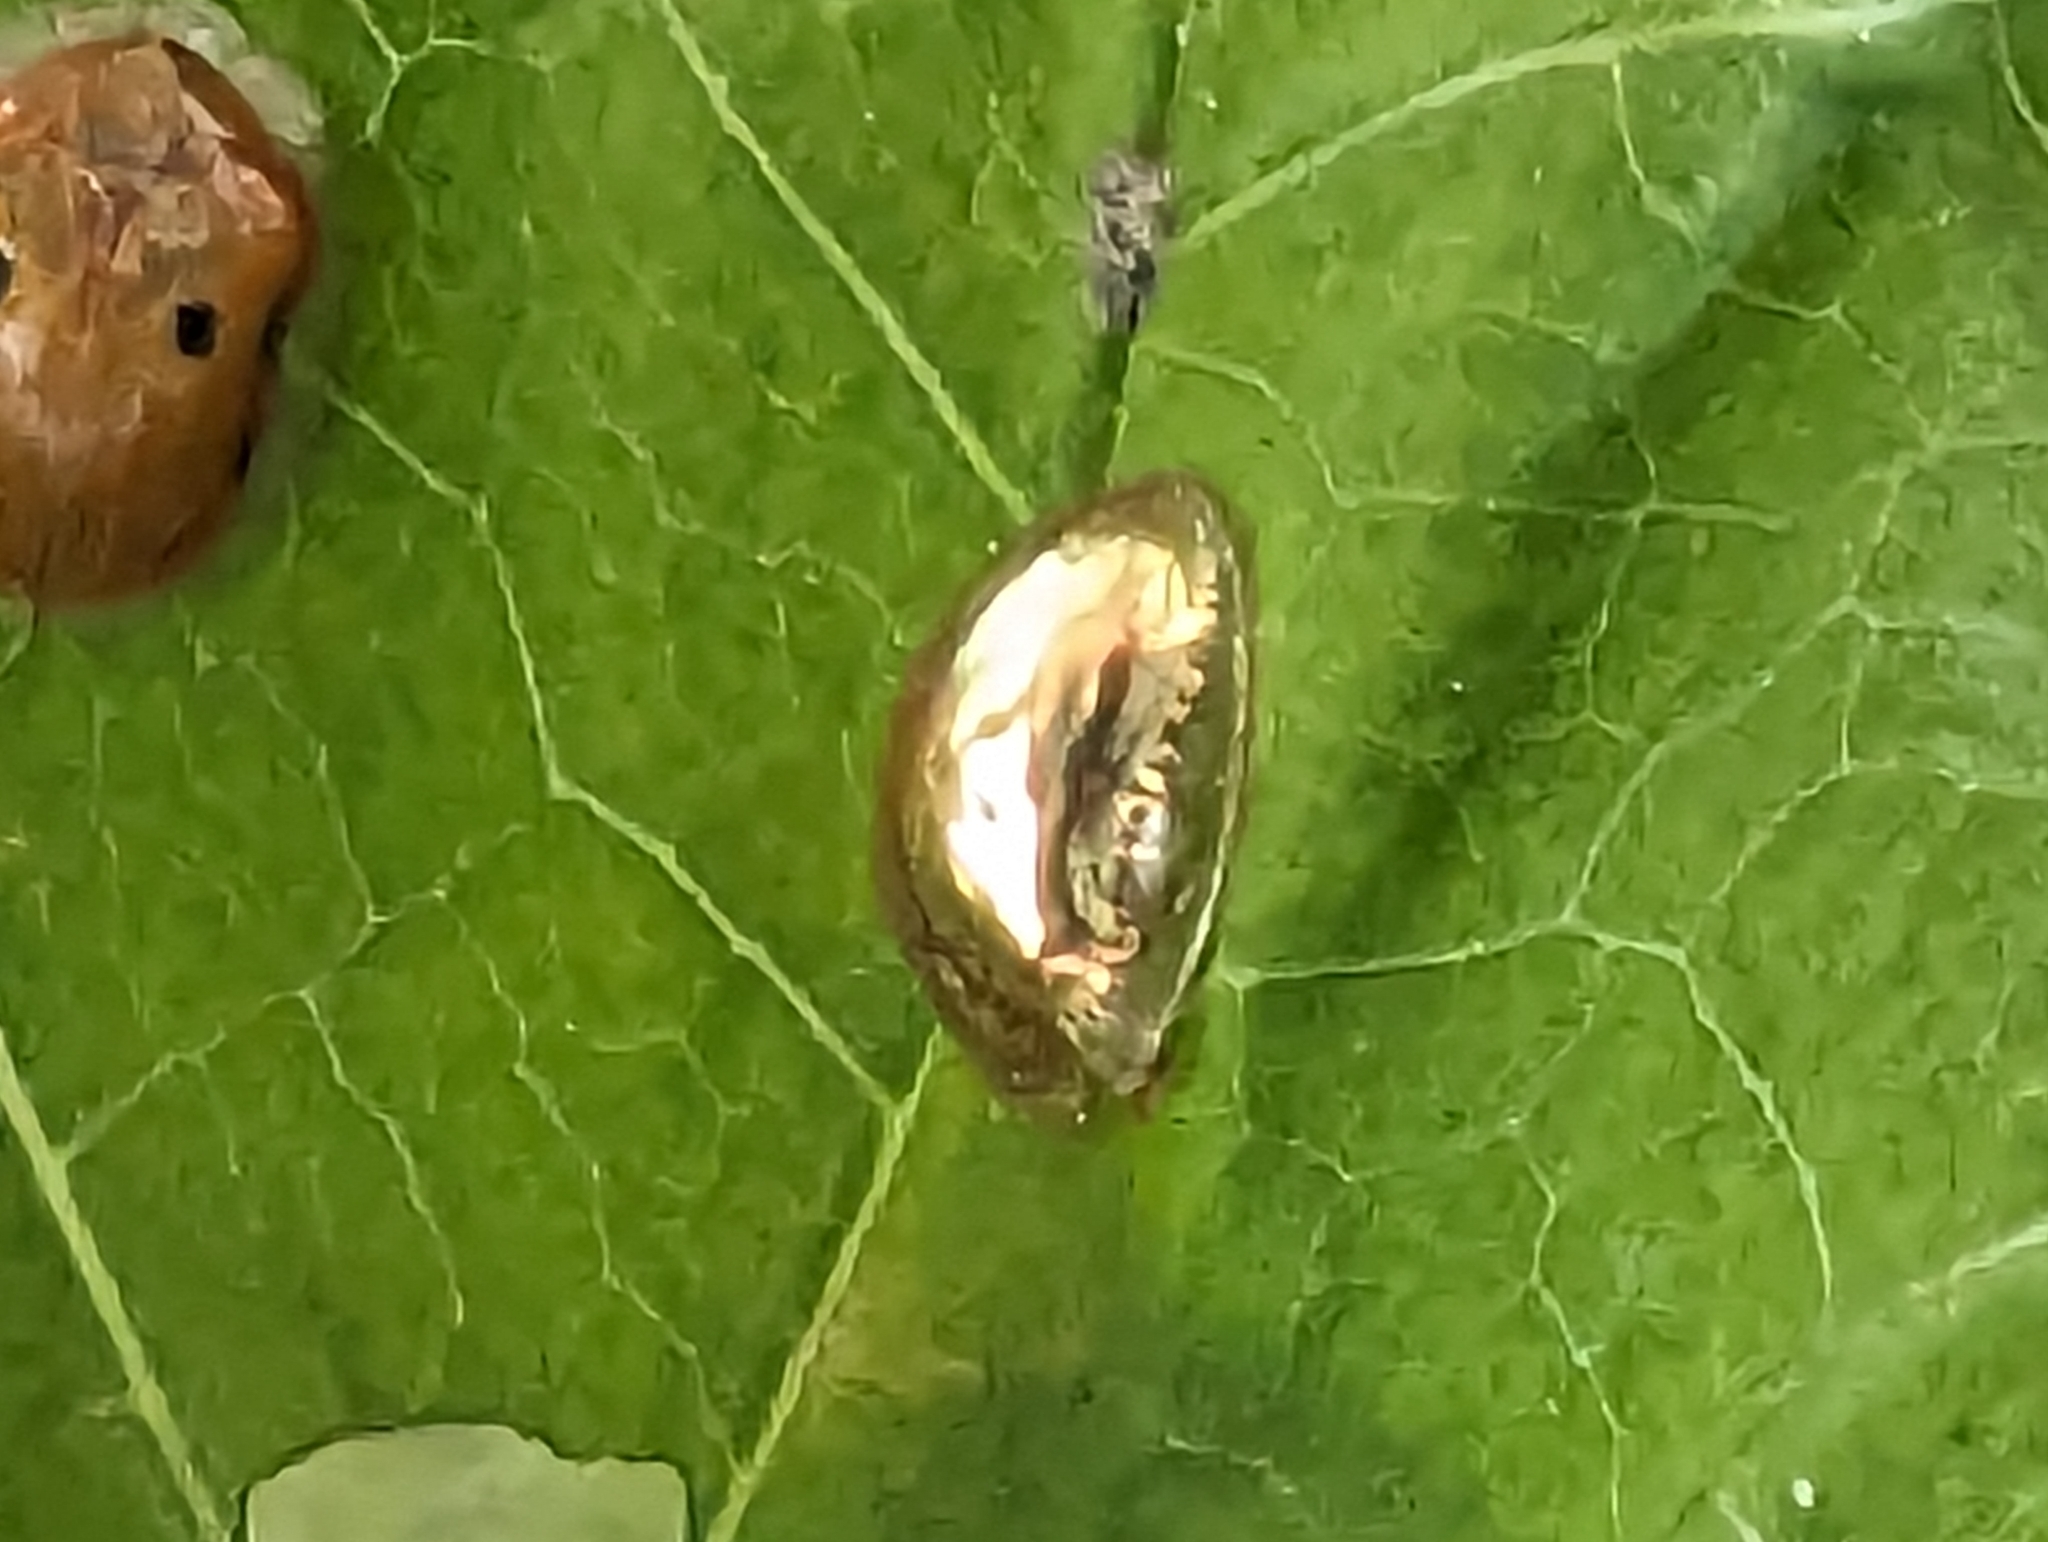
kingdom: Animalia
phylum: Arthropoda
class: Insecta
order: Coleoptera
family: Chrysomelidae
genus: Charidotella
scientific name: Charidotella sexpunctata
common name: Golden tortoise beetle
